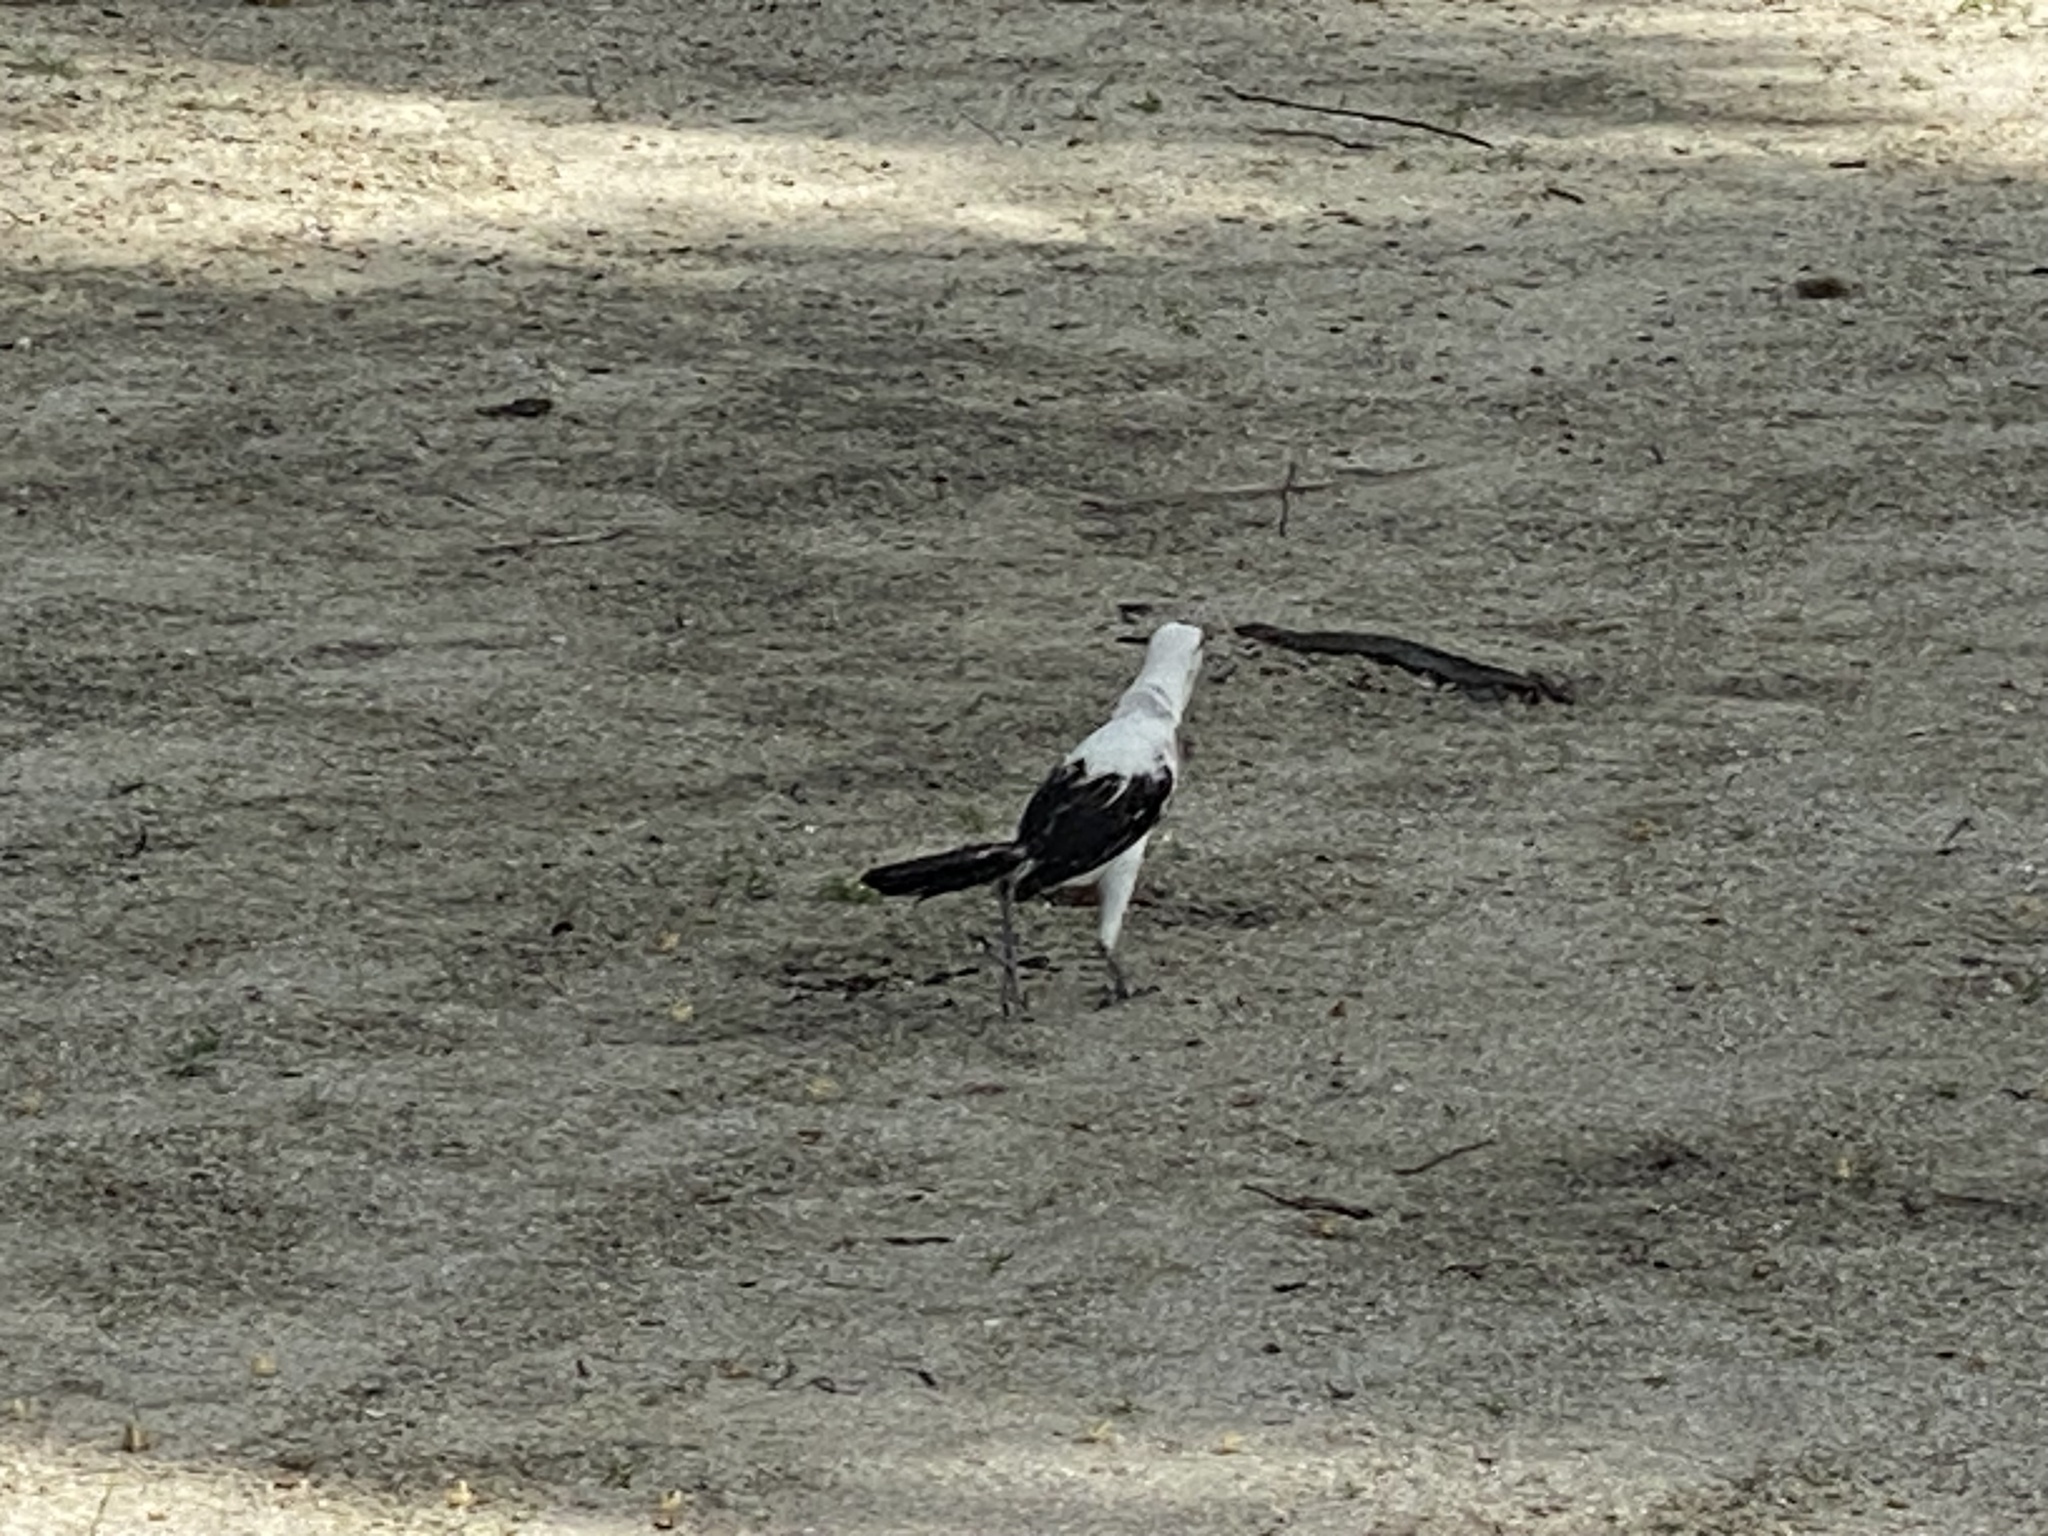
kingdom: Animalia
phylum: Chordata
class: Aves
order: Passeriformes
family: Icteridae
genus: Quiscalus
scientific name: Quiscalus mexicanus
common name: Great-tailed grackle
